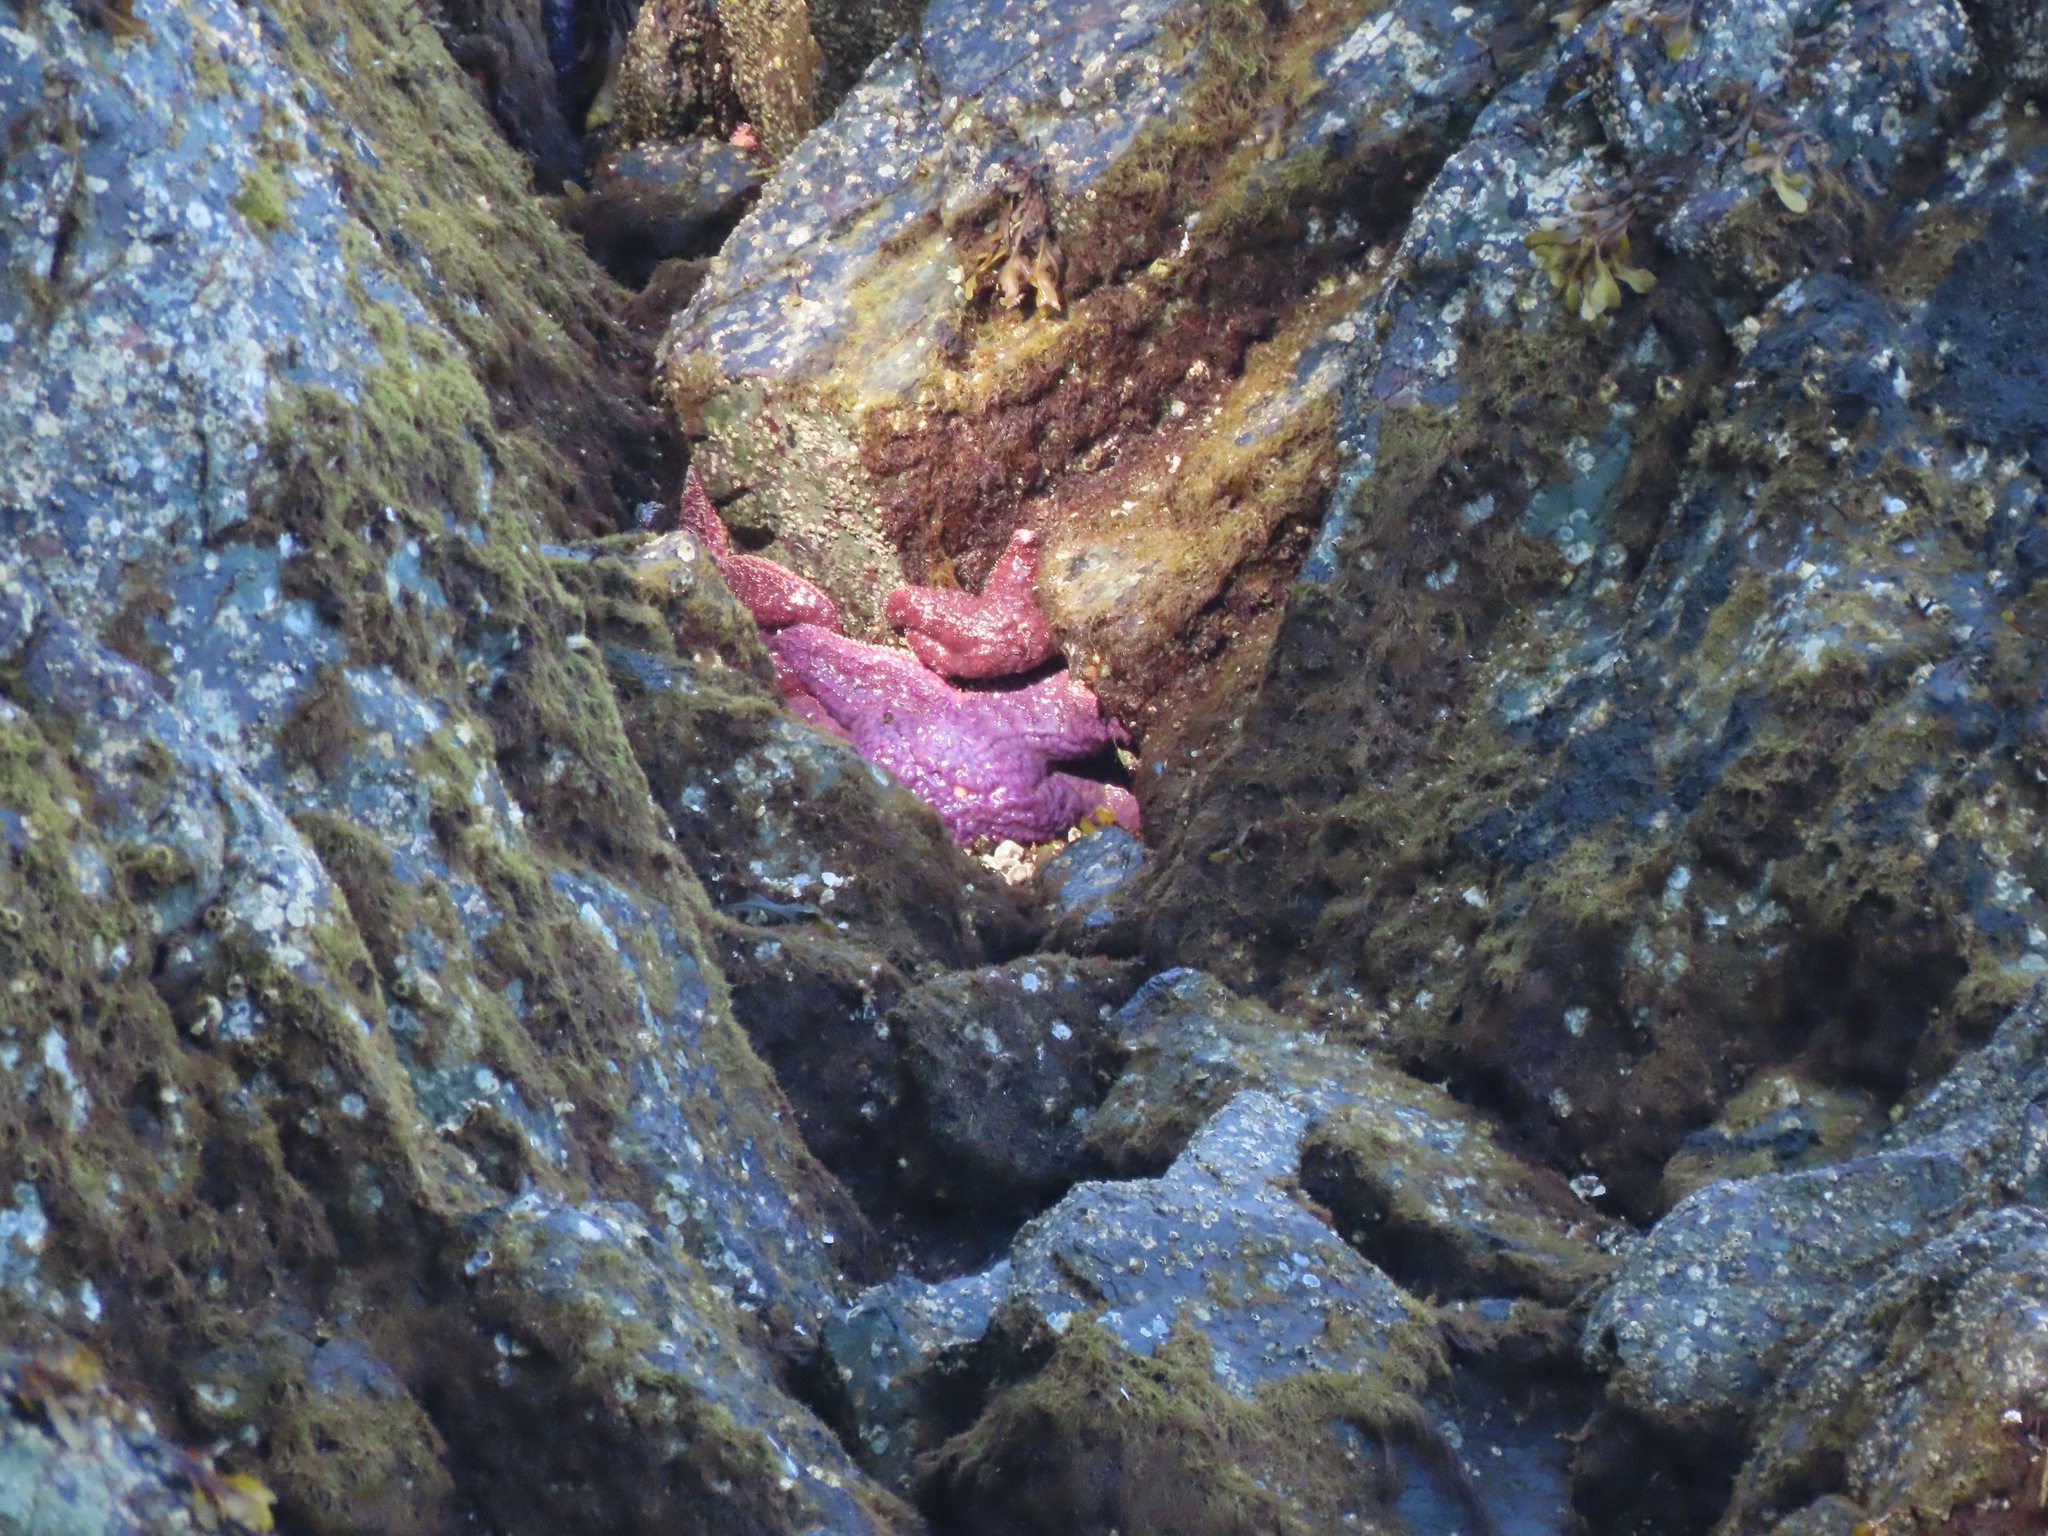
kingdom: Animalia
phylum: Echinodermata
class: Asteroidea
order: Forcipulatida
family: Asteriidae
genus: Pisaster
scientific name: Pisaster ochraceus
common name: Ochre stars
